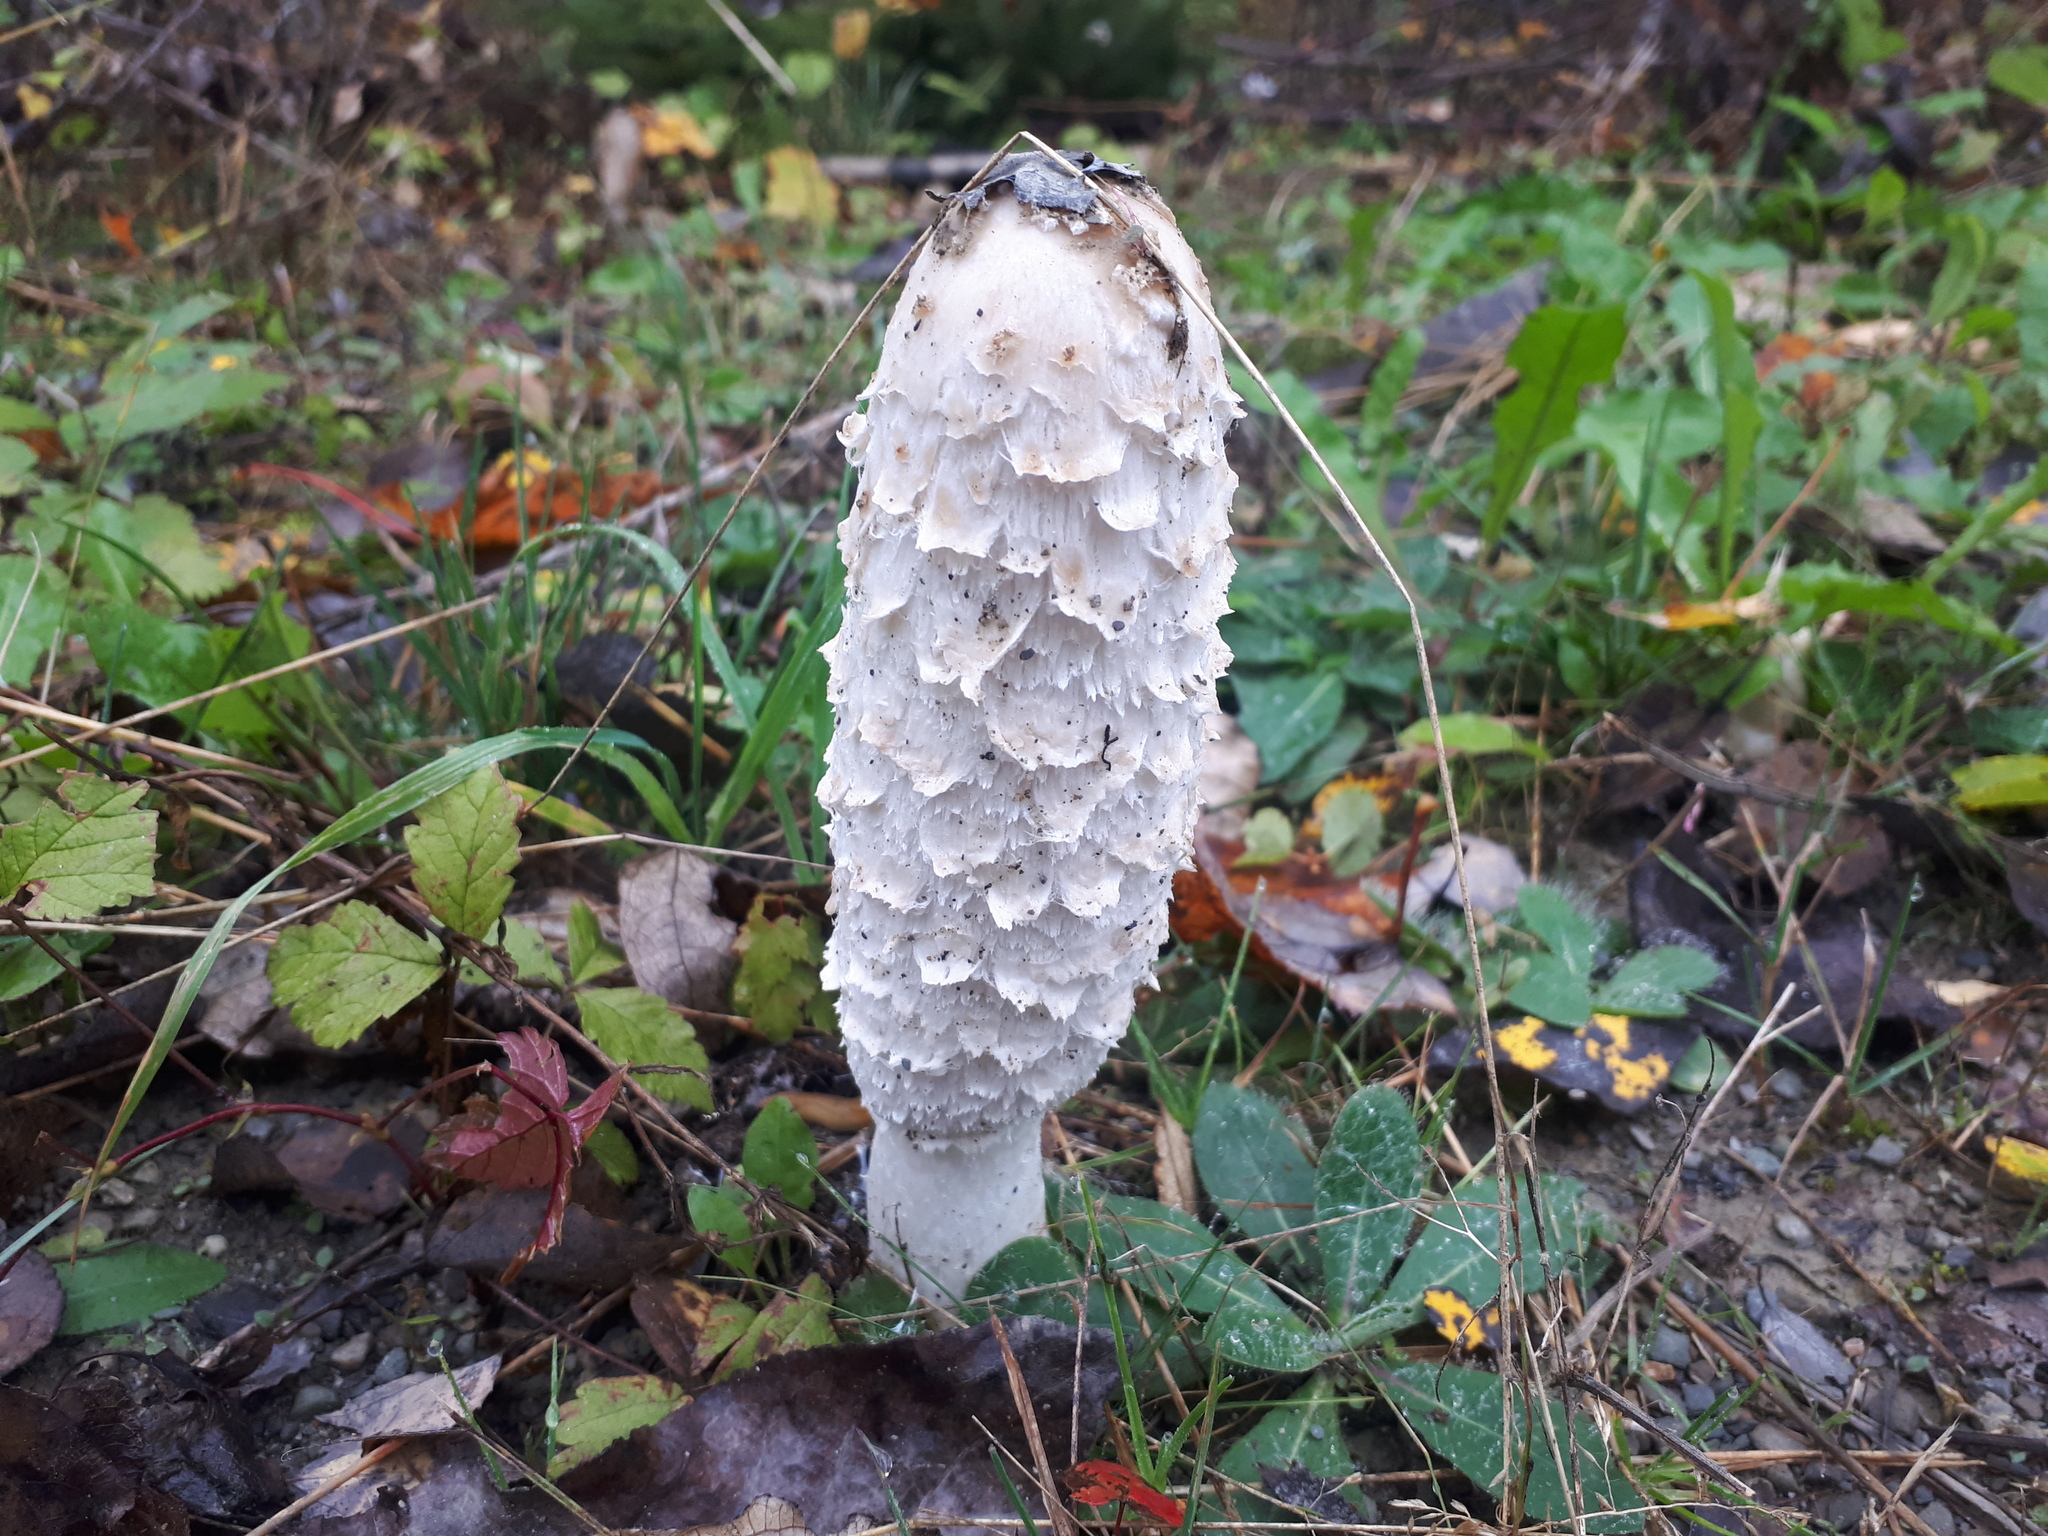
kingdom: Fungi
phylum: Basidiomycota
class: Agaricomycetes
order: Agaricales
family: Agaricaceae
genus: Coprinus
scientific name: Coprinus comatus
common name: Lawyer's wig
